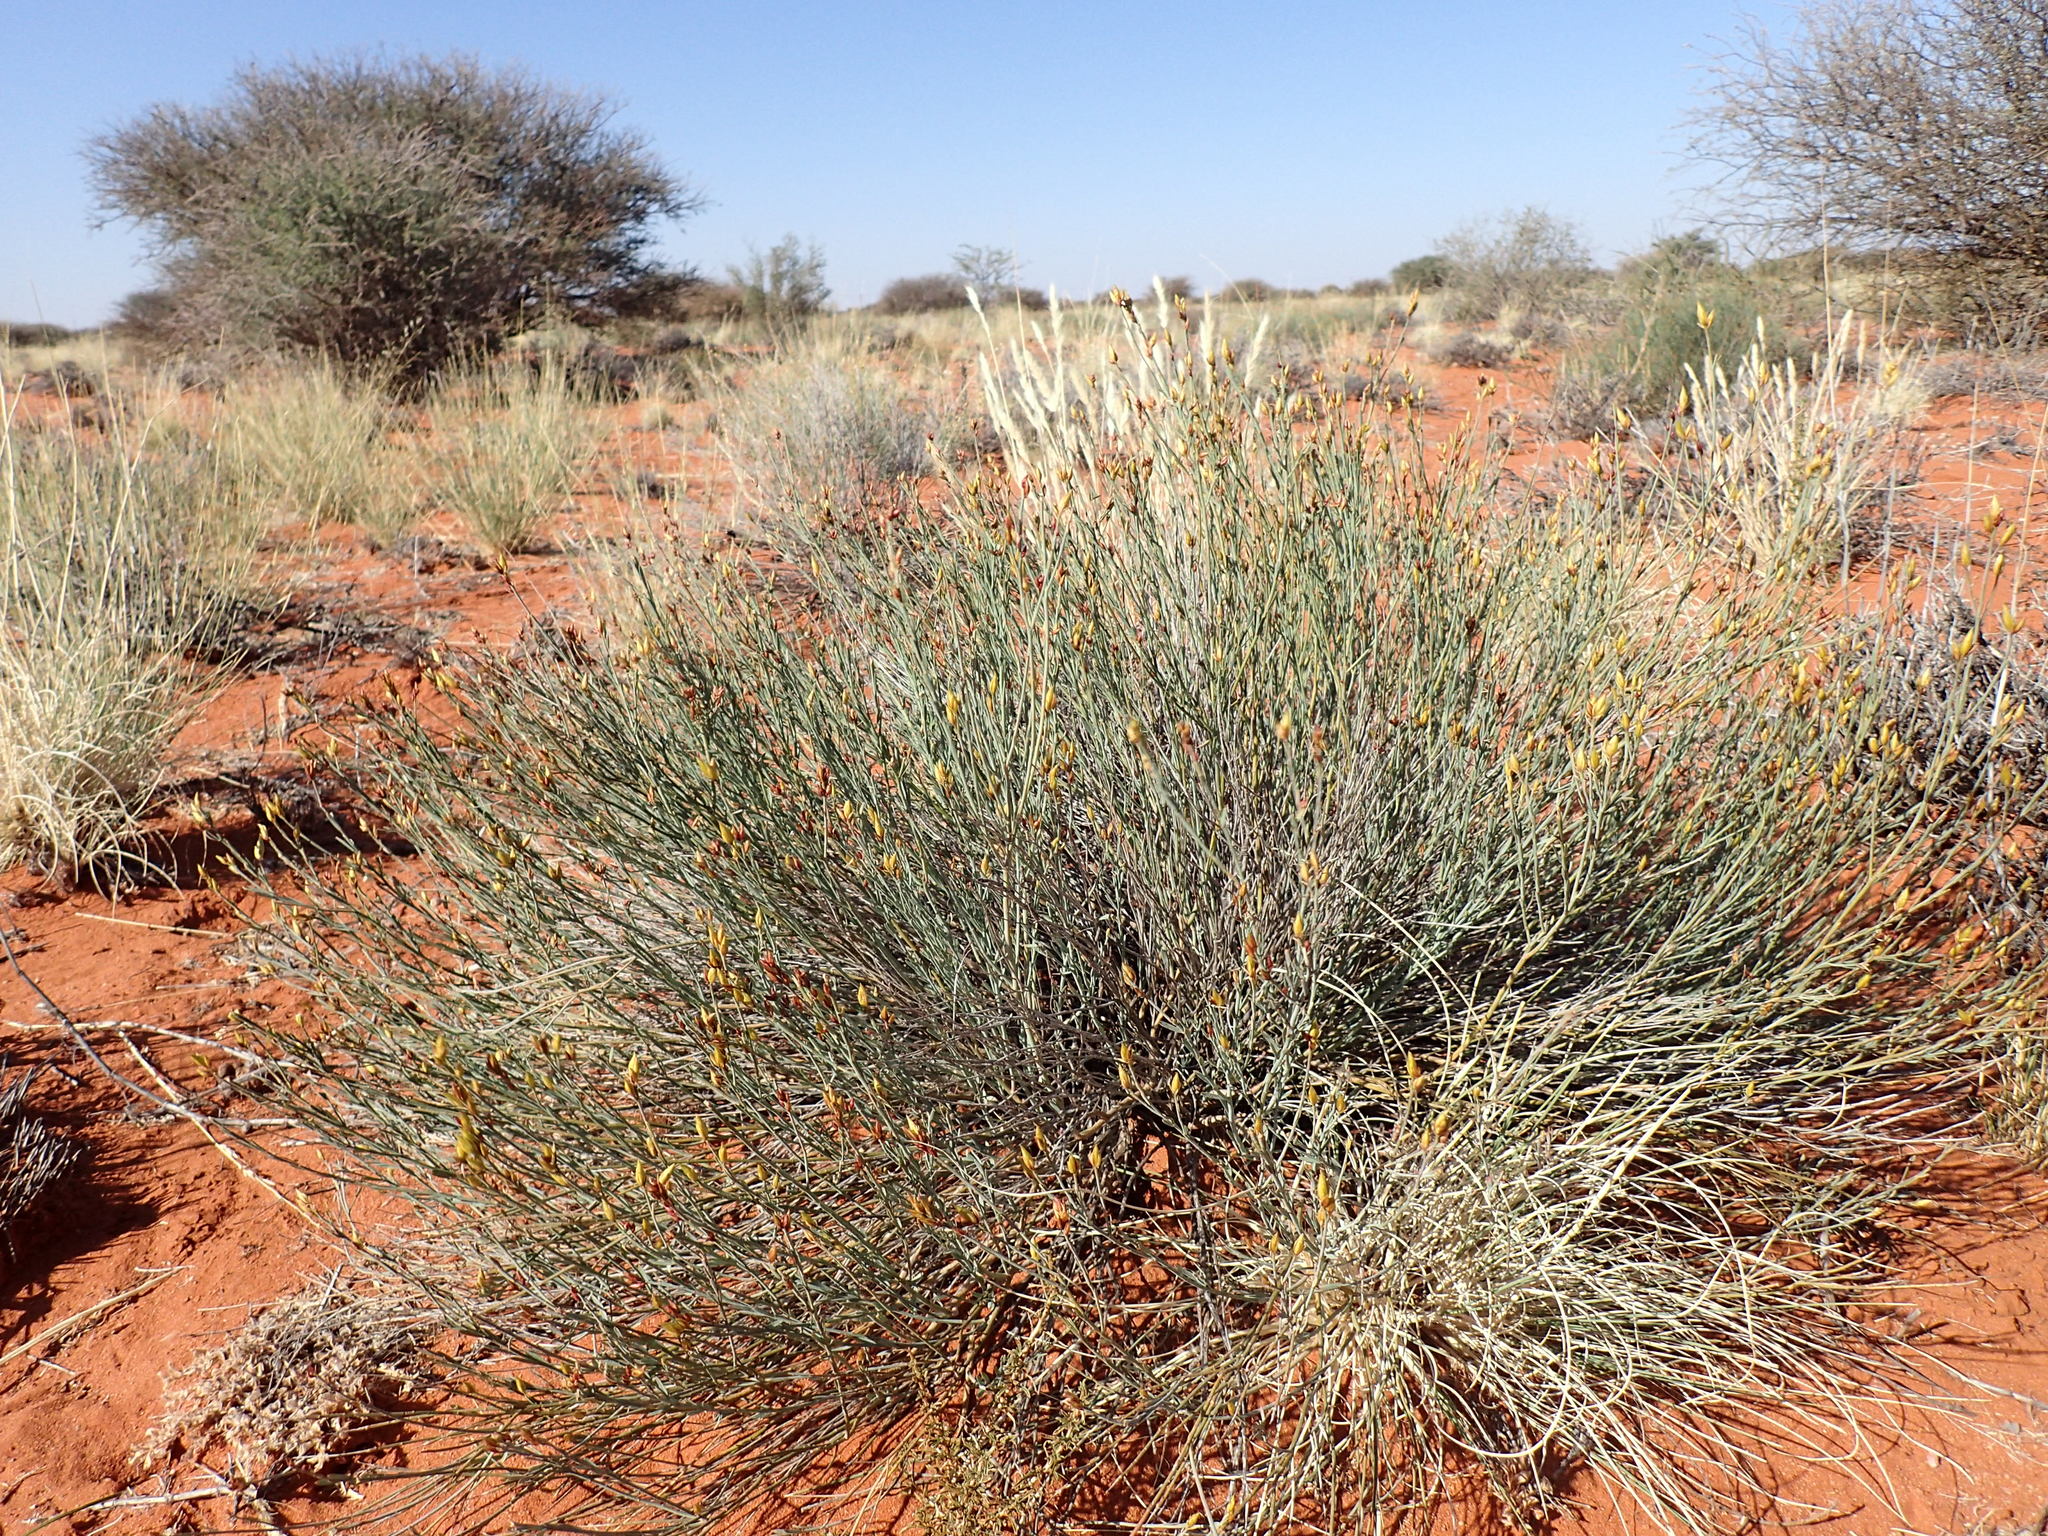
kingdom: Plantae
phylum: Tracheophyta
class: Magnoliopsida
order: Zygophyllales
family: Zygophyllaceae
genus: Sisyndite
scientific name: Sisyndite spartea
